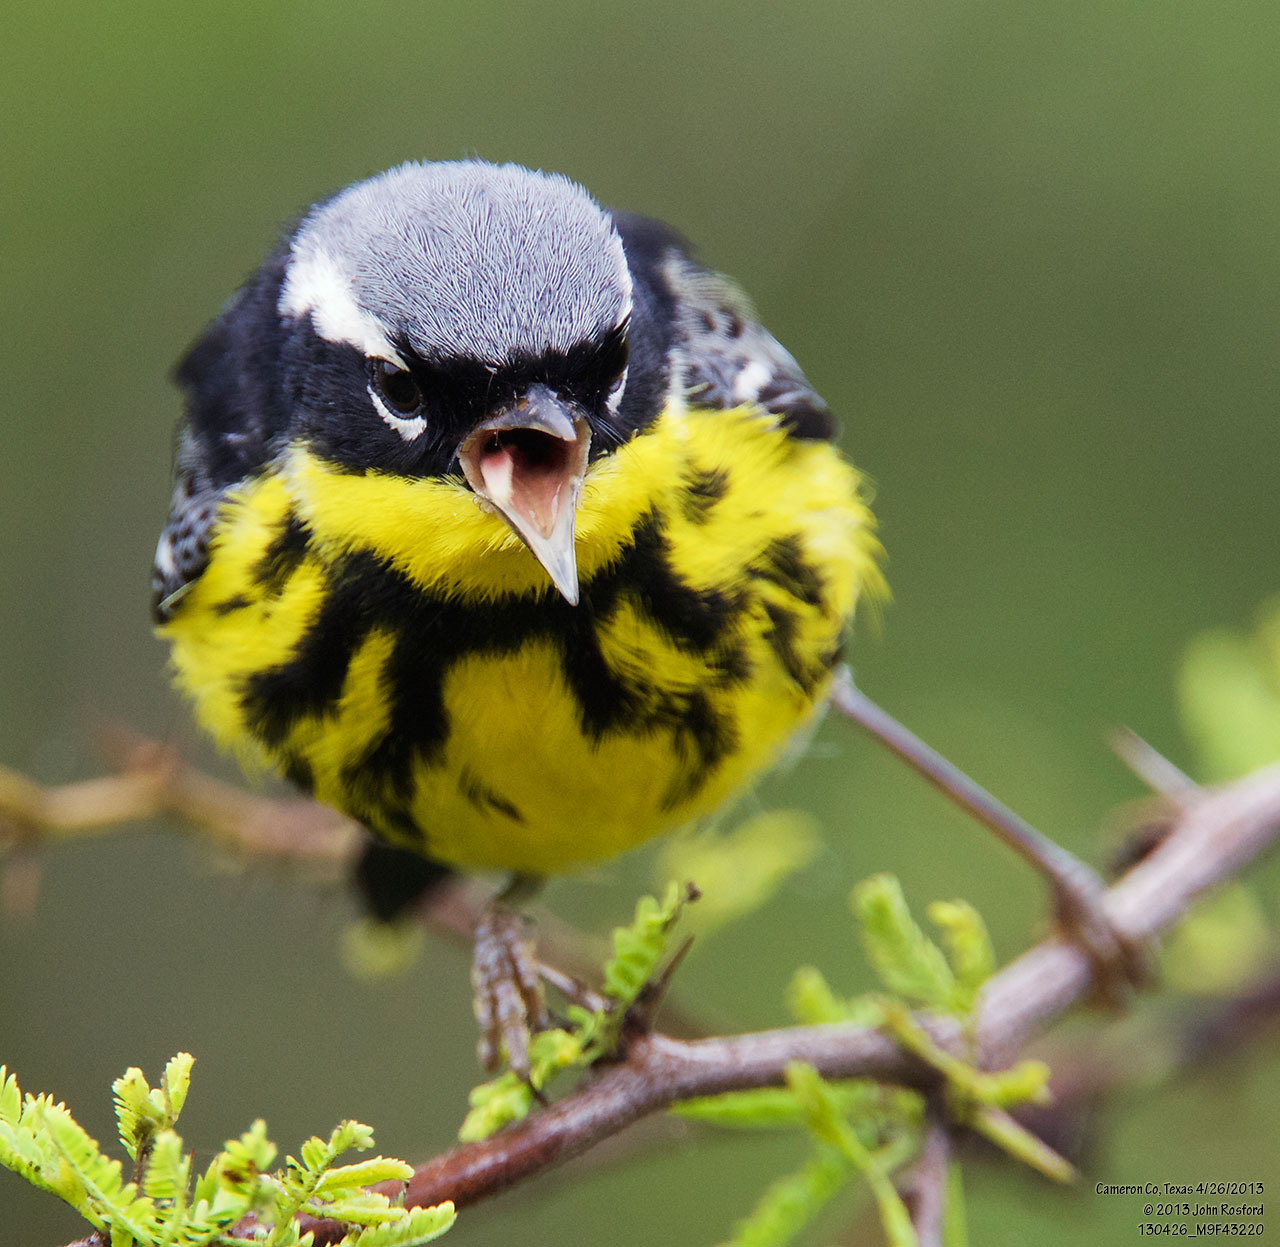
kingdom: Animalia
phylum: Chordata
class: Aves
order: Passeriformes
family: Parulidae
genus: Setophaga
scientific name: Setophaga magnolia
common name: Magnolia warbler
